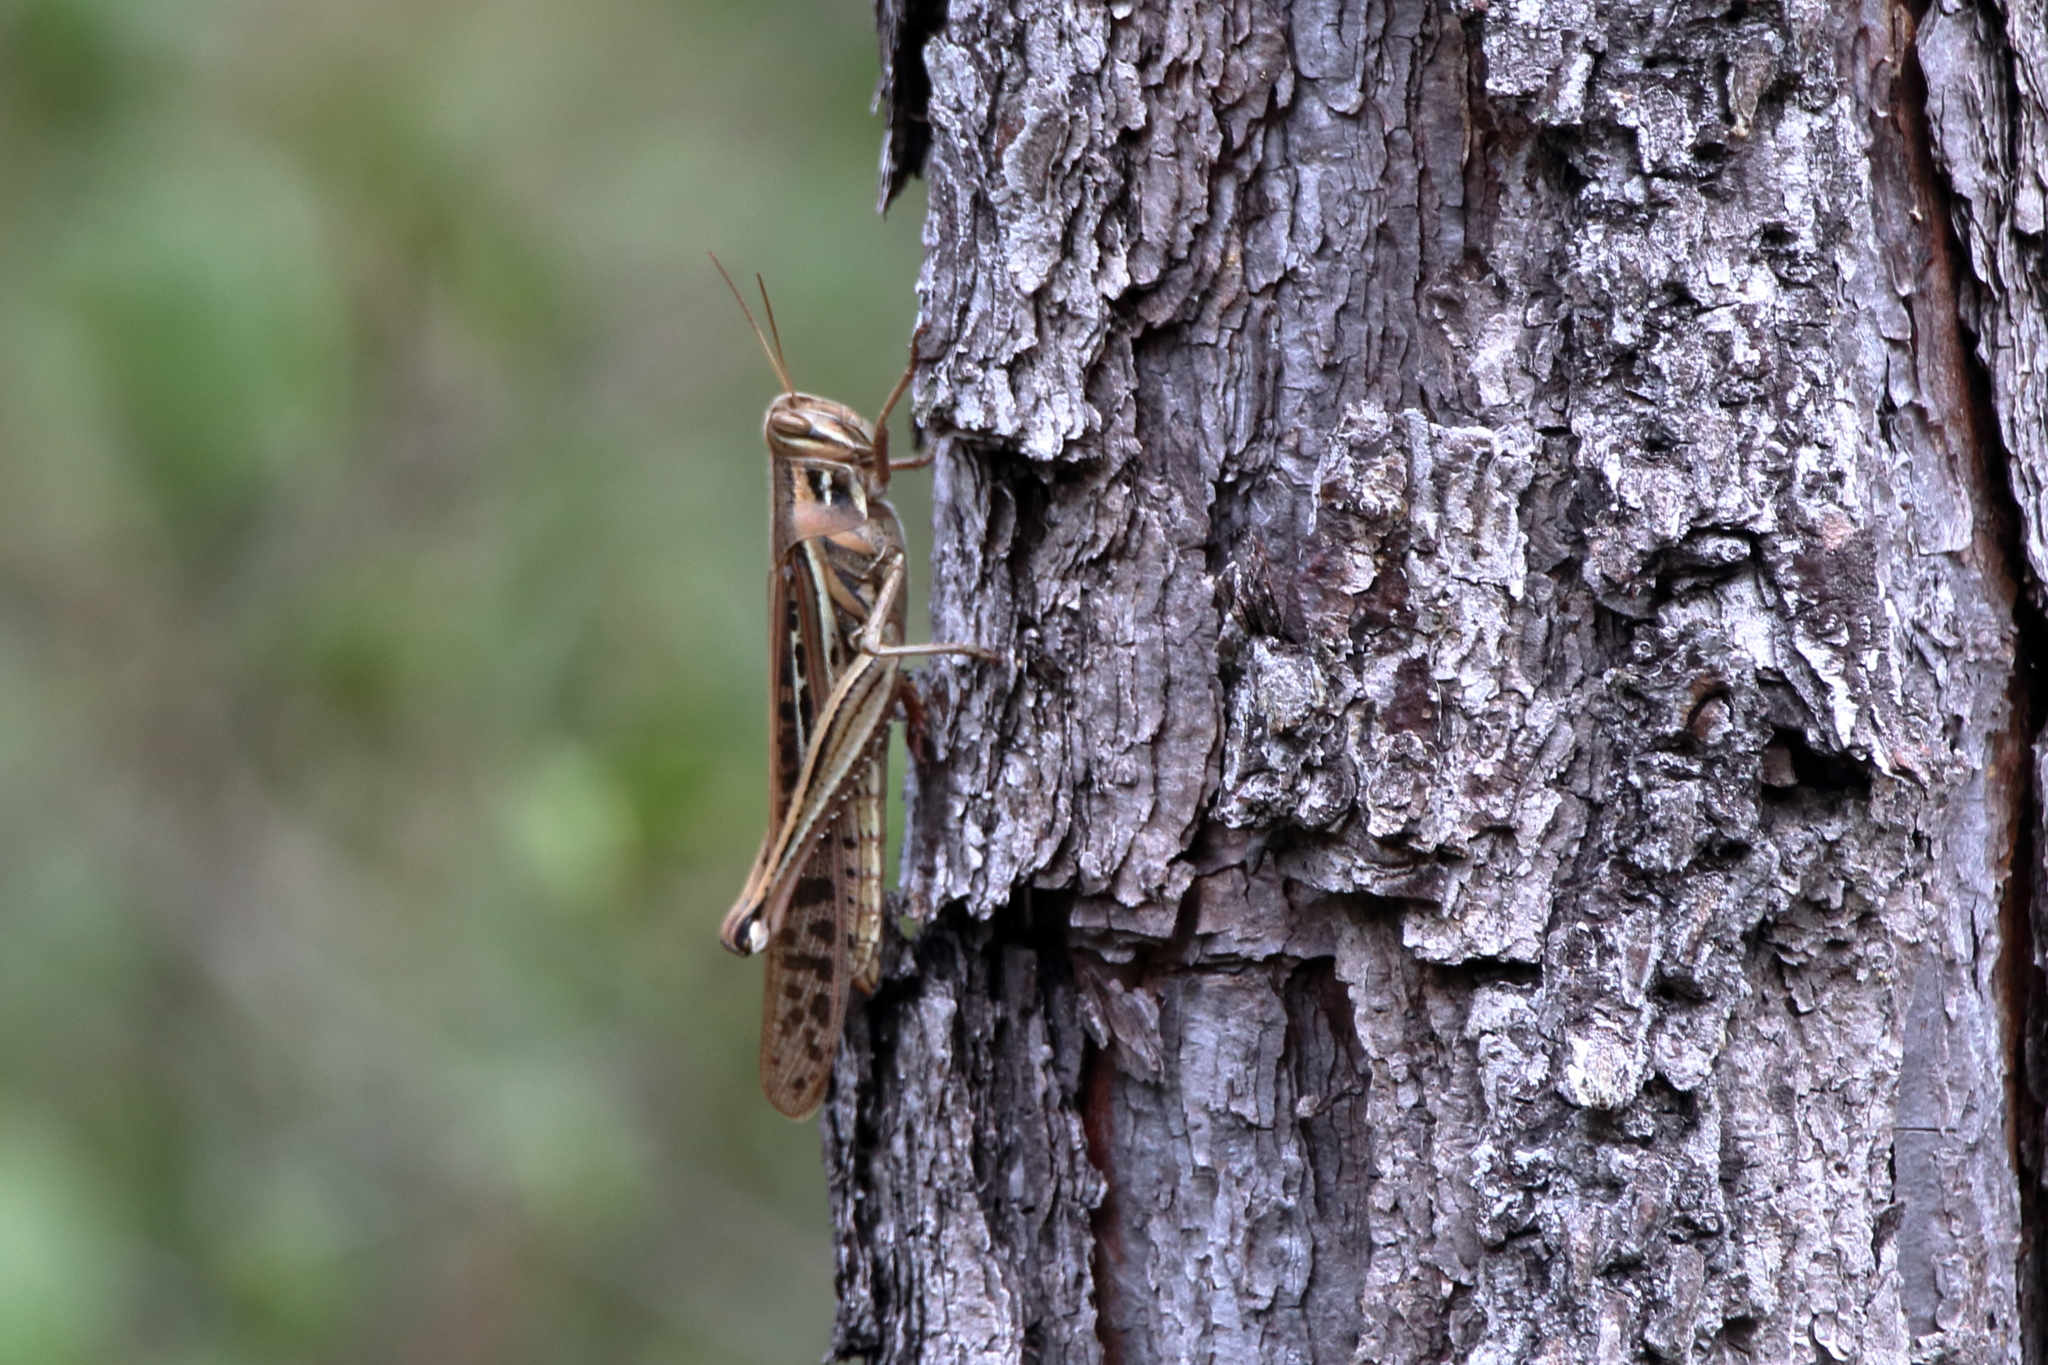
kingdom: Animalia
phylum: Arthropoda
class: Insecta
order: Orthoptera
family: Acrididae
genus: Schistocerca
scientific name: Schistocerca americana
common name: American bird locust
